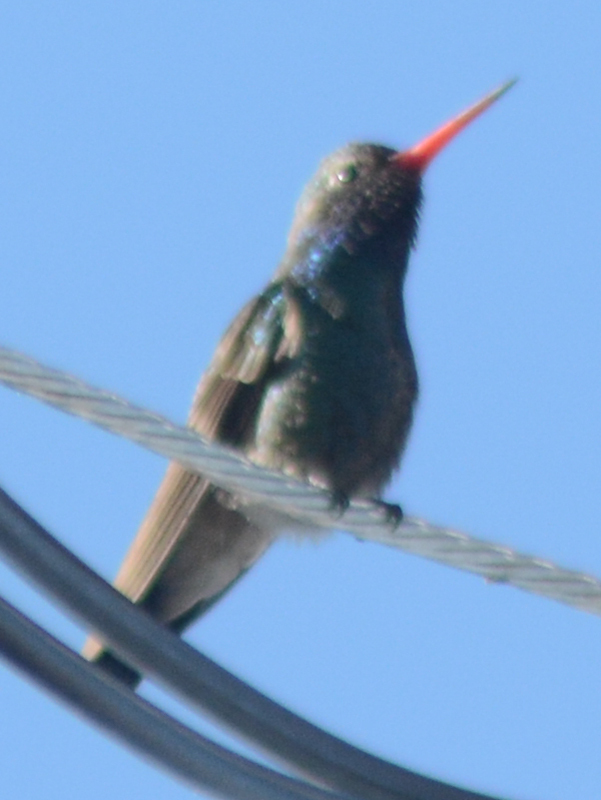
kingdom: Animalia
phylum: Chordata
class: Aves
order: Apodiformes
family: Trochilidae
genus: Cynanthus
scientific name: Cynanthus latirostris
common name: Broad-billed hummingbird
